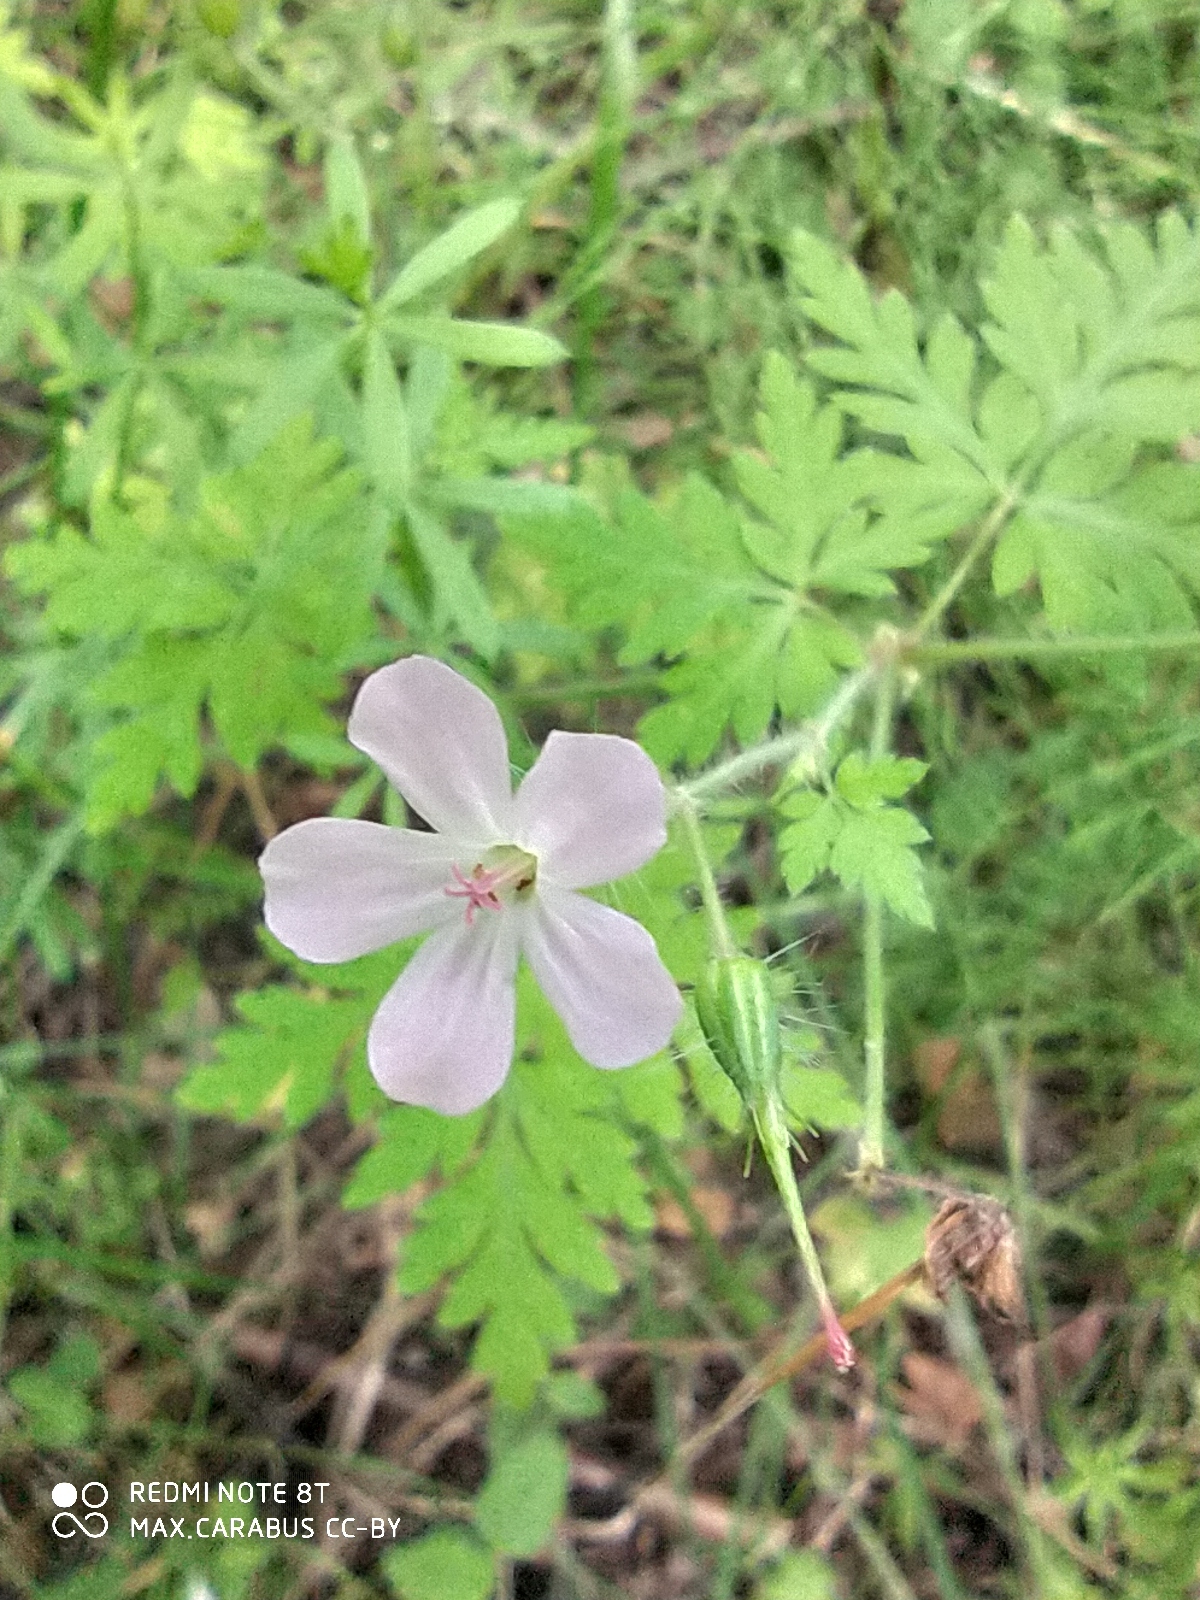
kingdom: Plantae
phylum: Tracheophyta
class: Magnoliopsida
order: Geraniales
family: Geraniaceae
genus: Geranium
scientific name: Geranium robertianum
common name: Herb-robert
